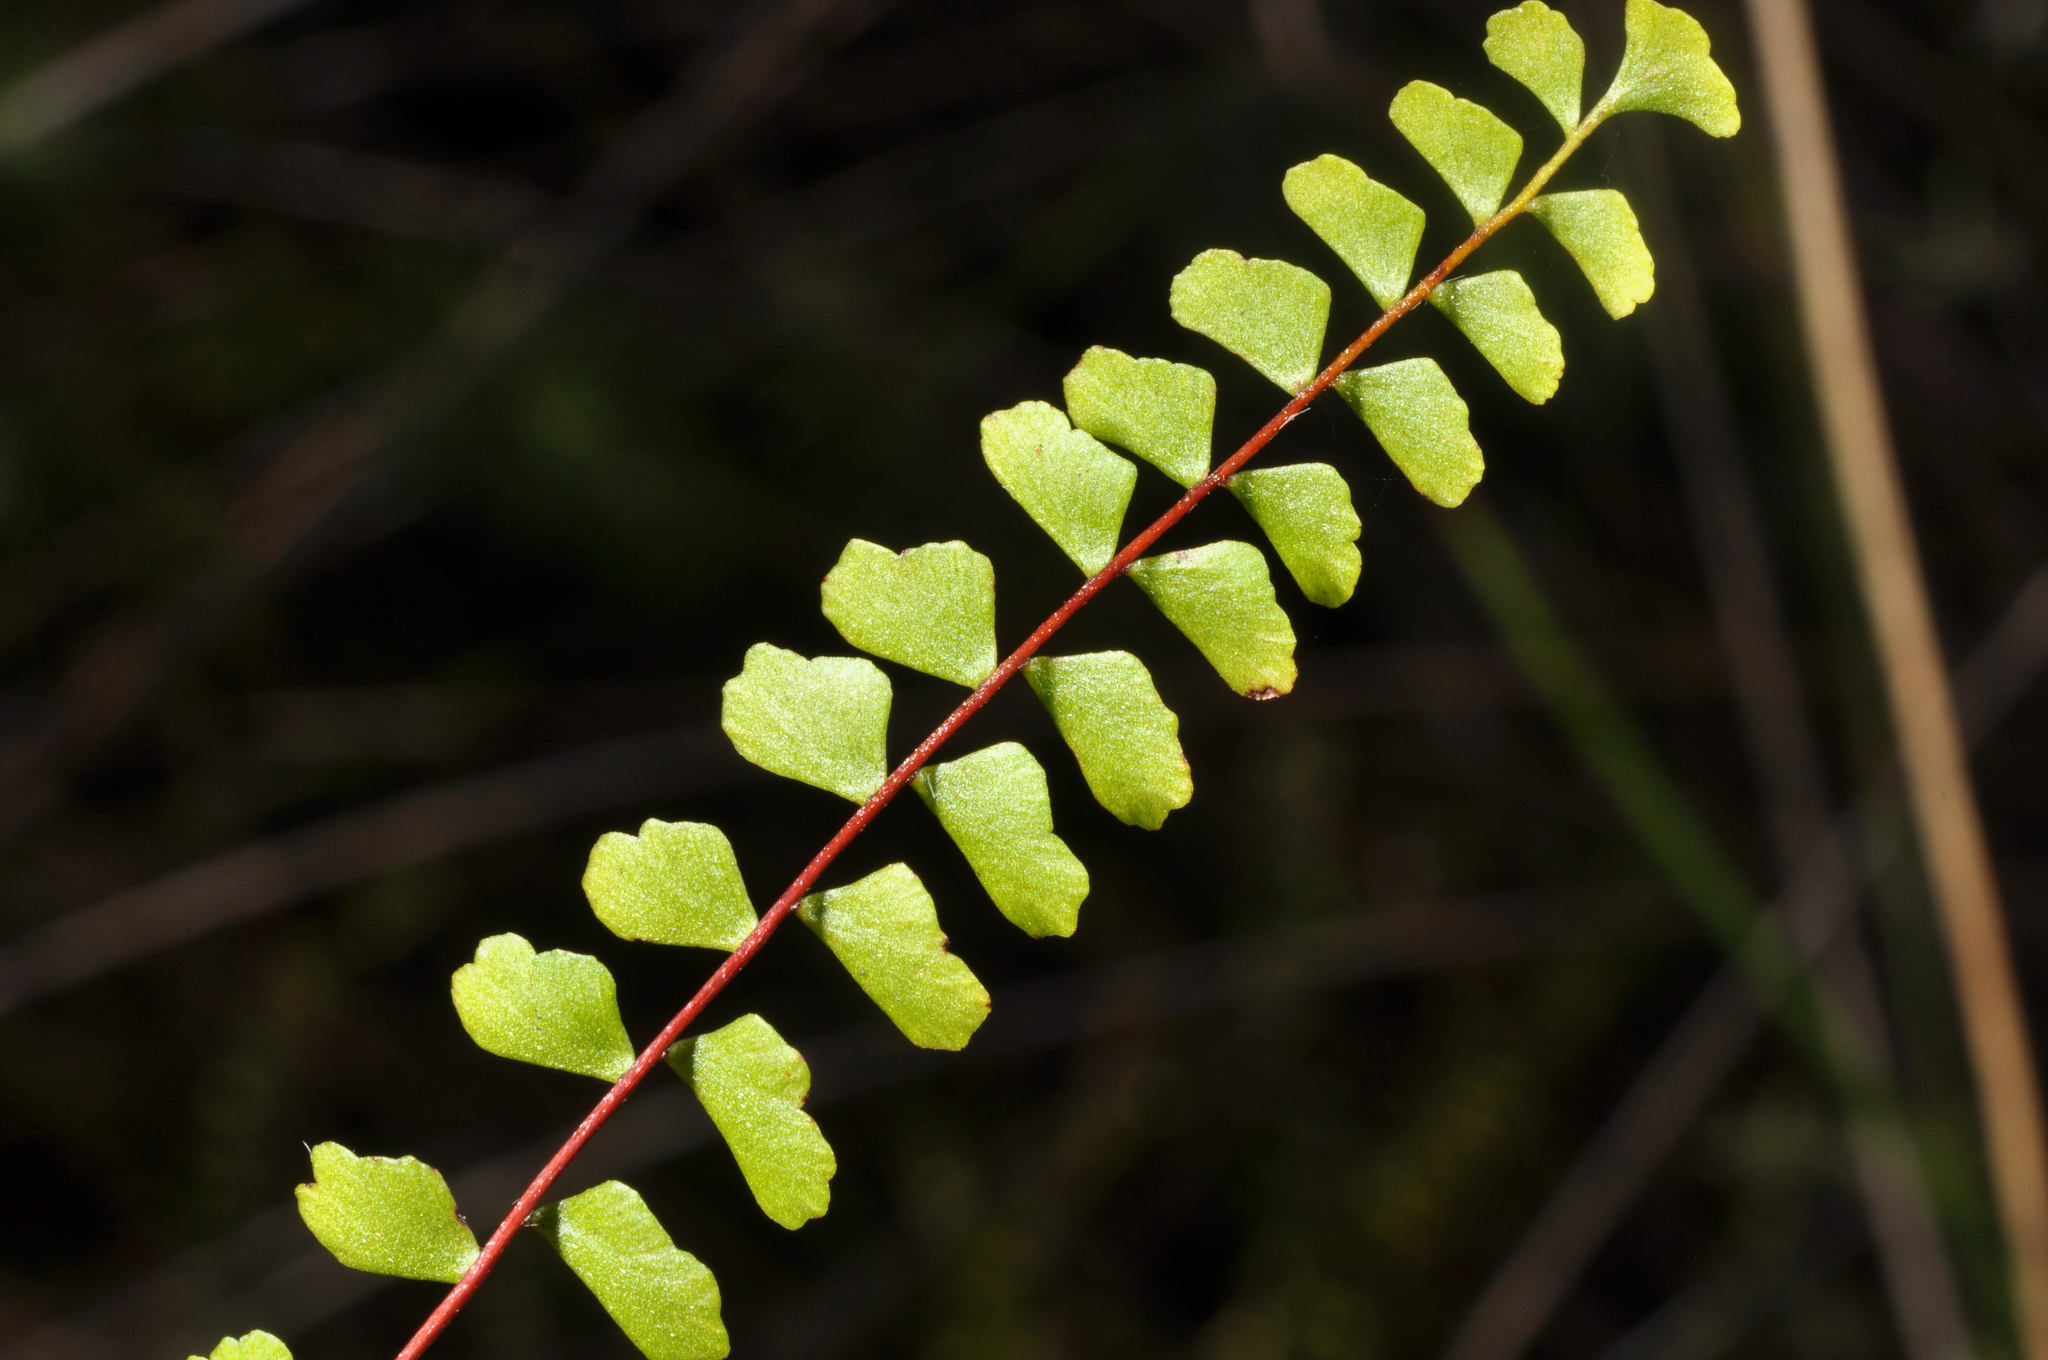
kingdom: Plantae
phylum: Tracheophyta
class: Polypodiopsida
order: Polypodiales
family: Lindsaeaceae
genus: Lindsaea
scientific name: Lindsaea linearis
